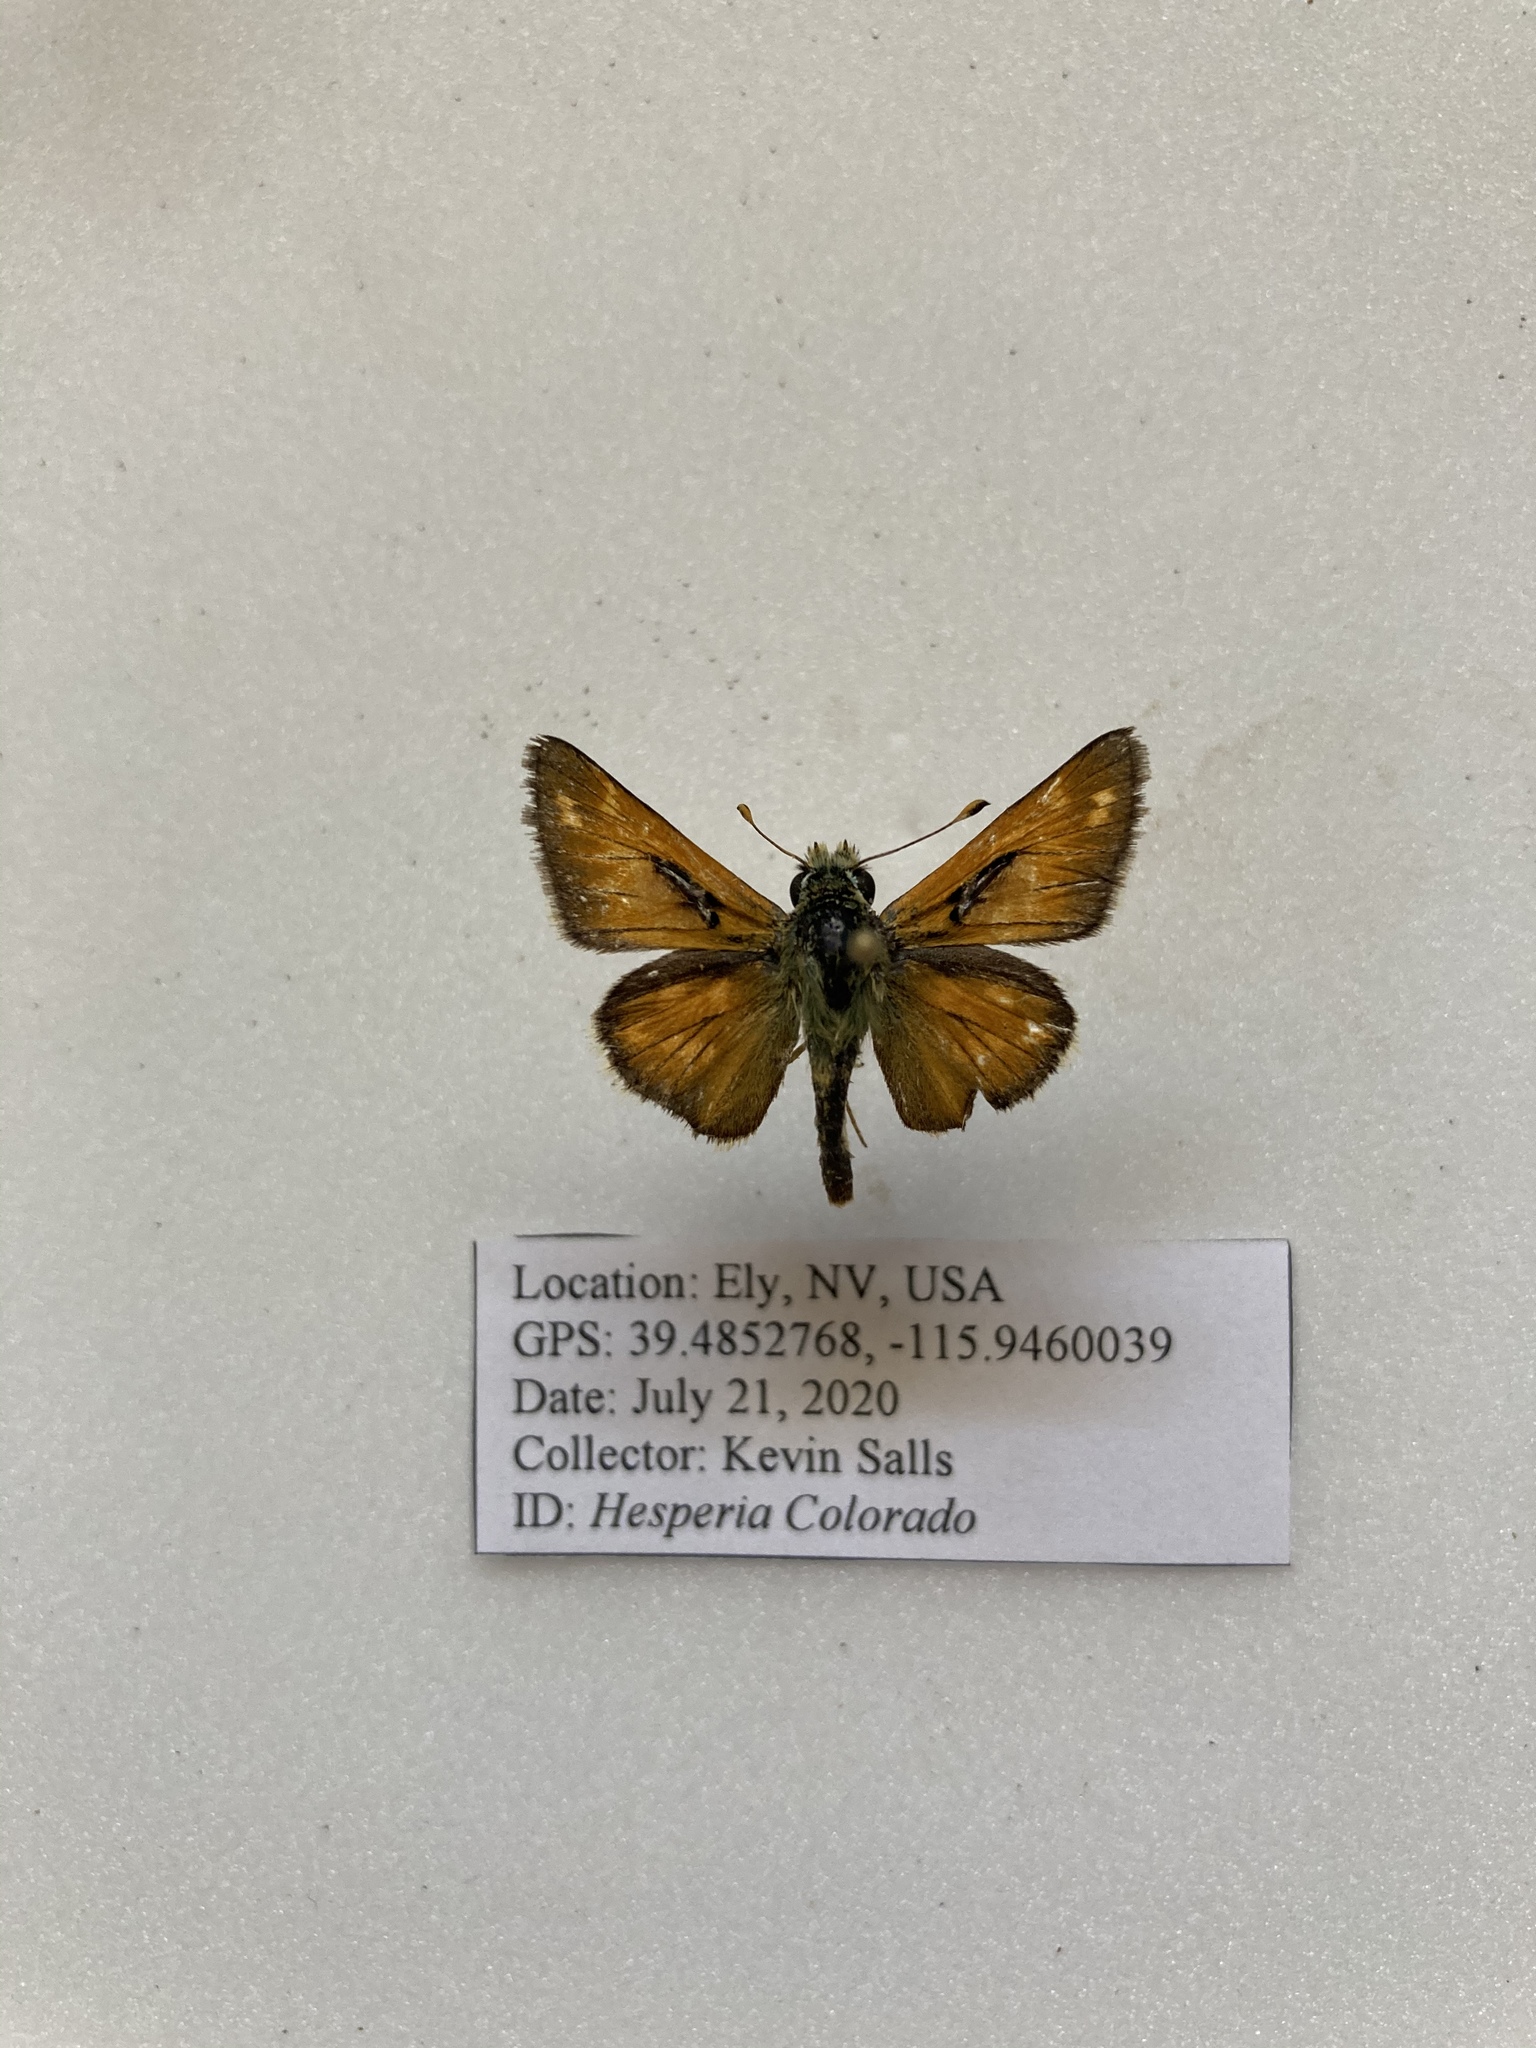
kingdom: Animalia
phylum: Arthropoda
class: Insecta
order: Lepidoptera
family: Hesperiidae
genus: Hesperia
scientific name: Hesperia comma
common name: Common branded skipper
